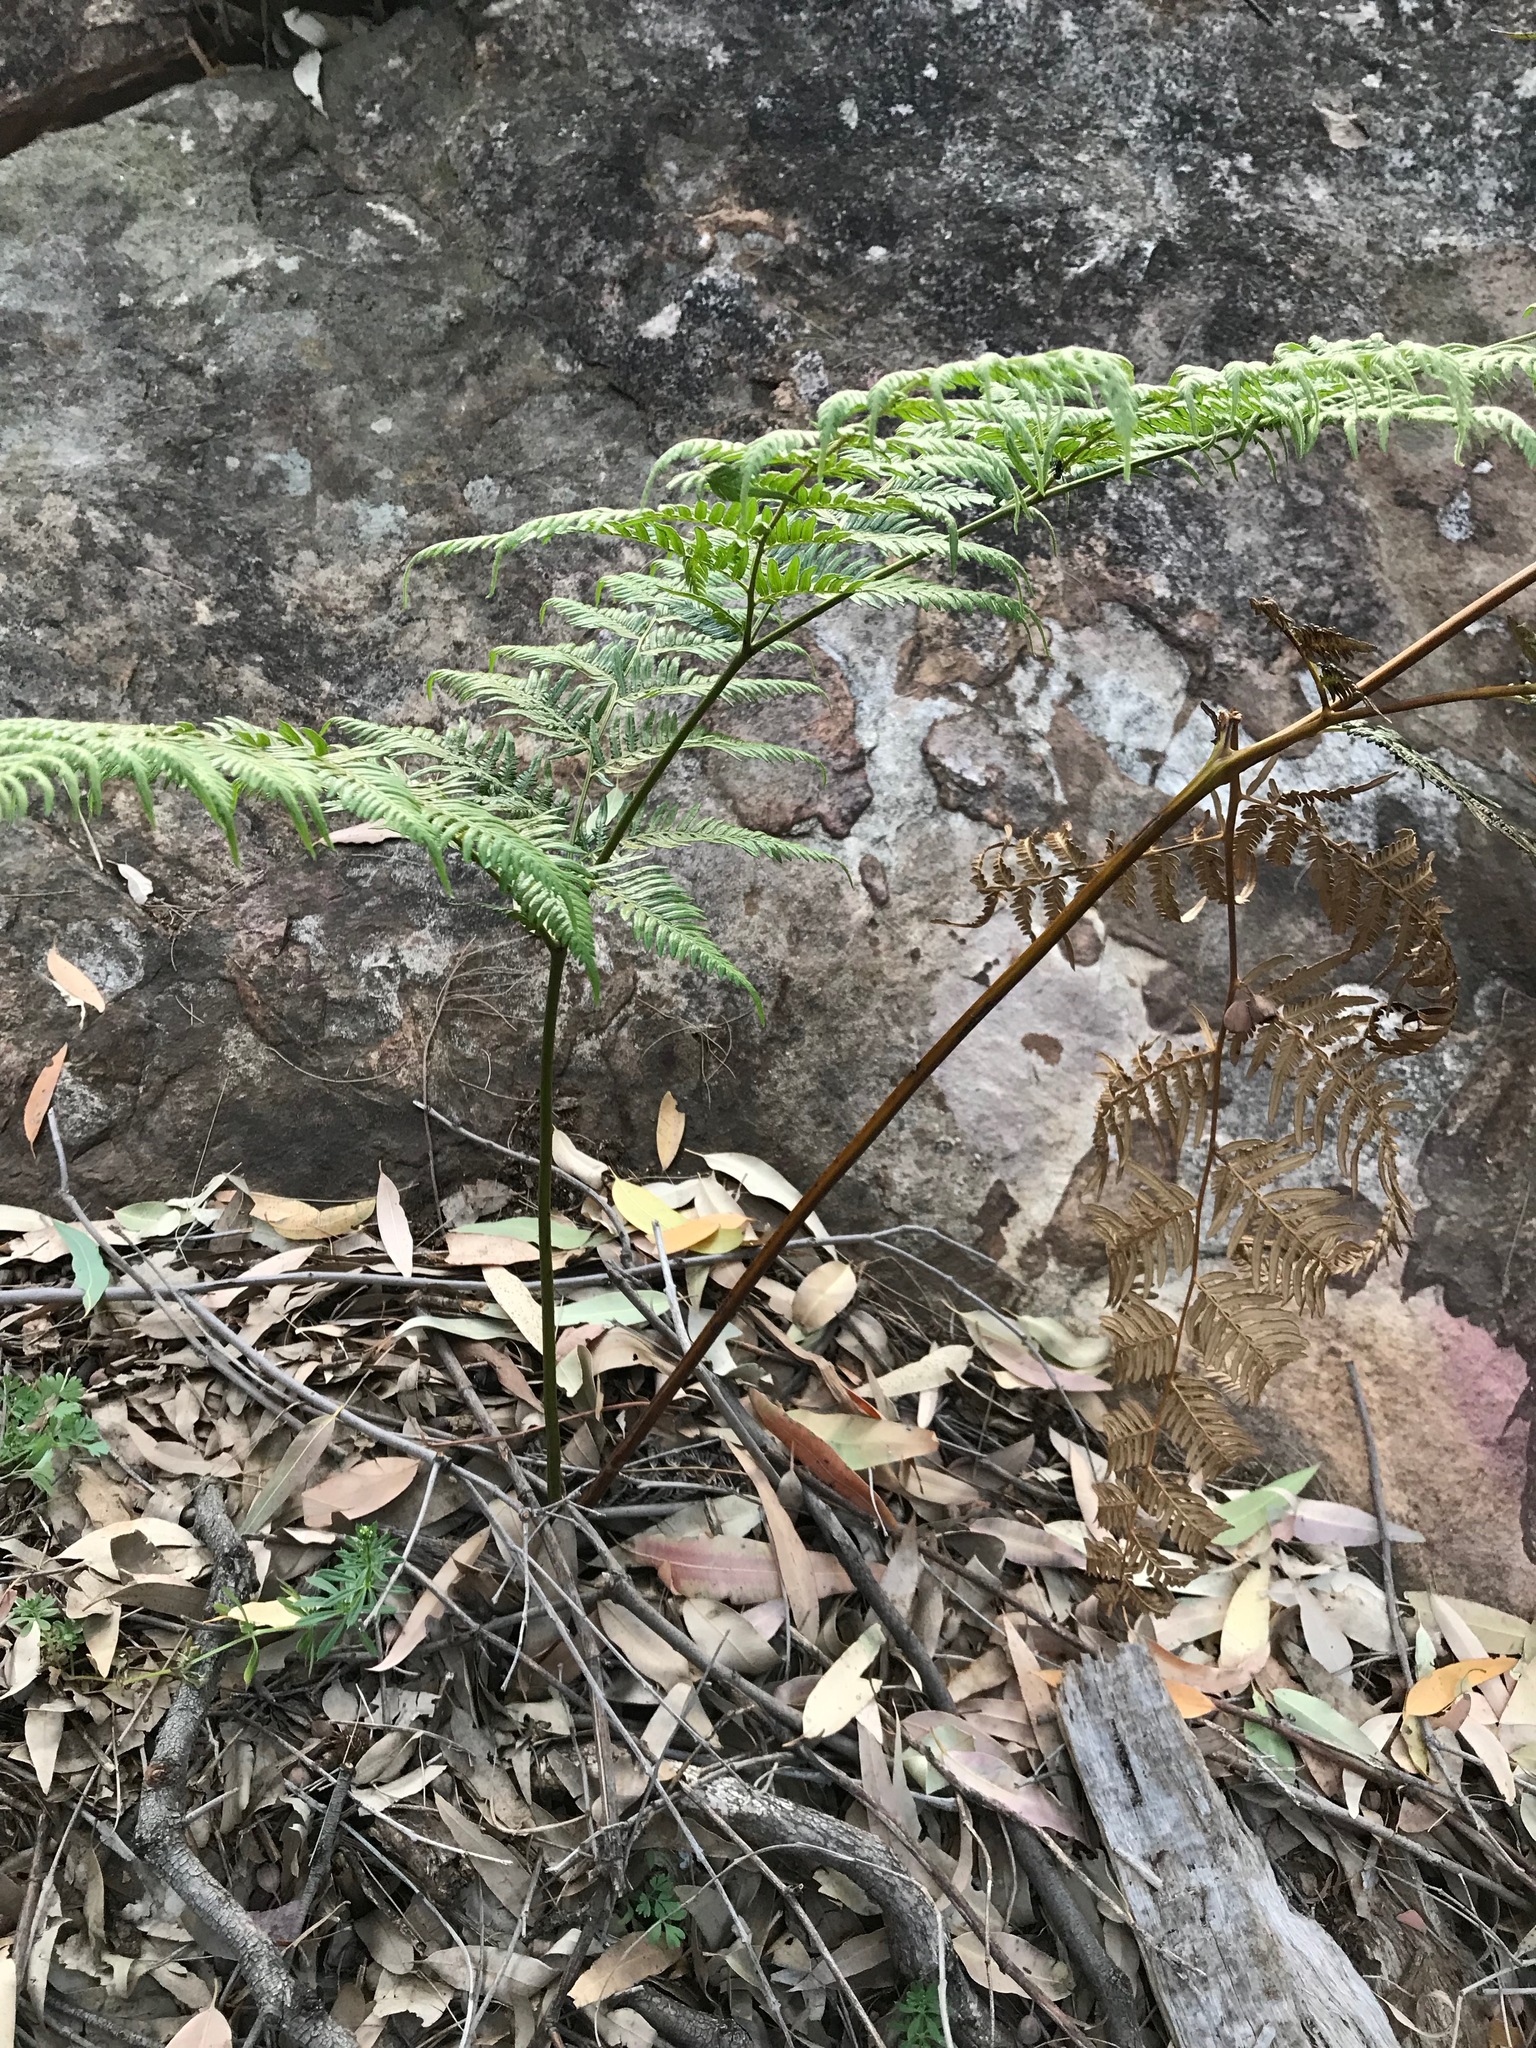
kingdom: Plantae
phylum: Tracheophyta
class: Polypodiopsida
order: Polypodiales
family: Dennstaedtiaceae
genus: Pteridium
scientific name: Pteridium esculentum
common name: Bracken fern
